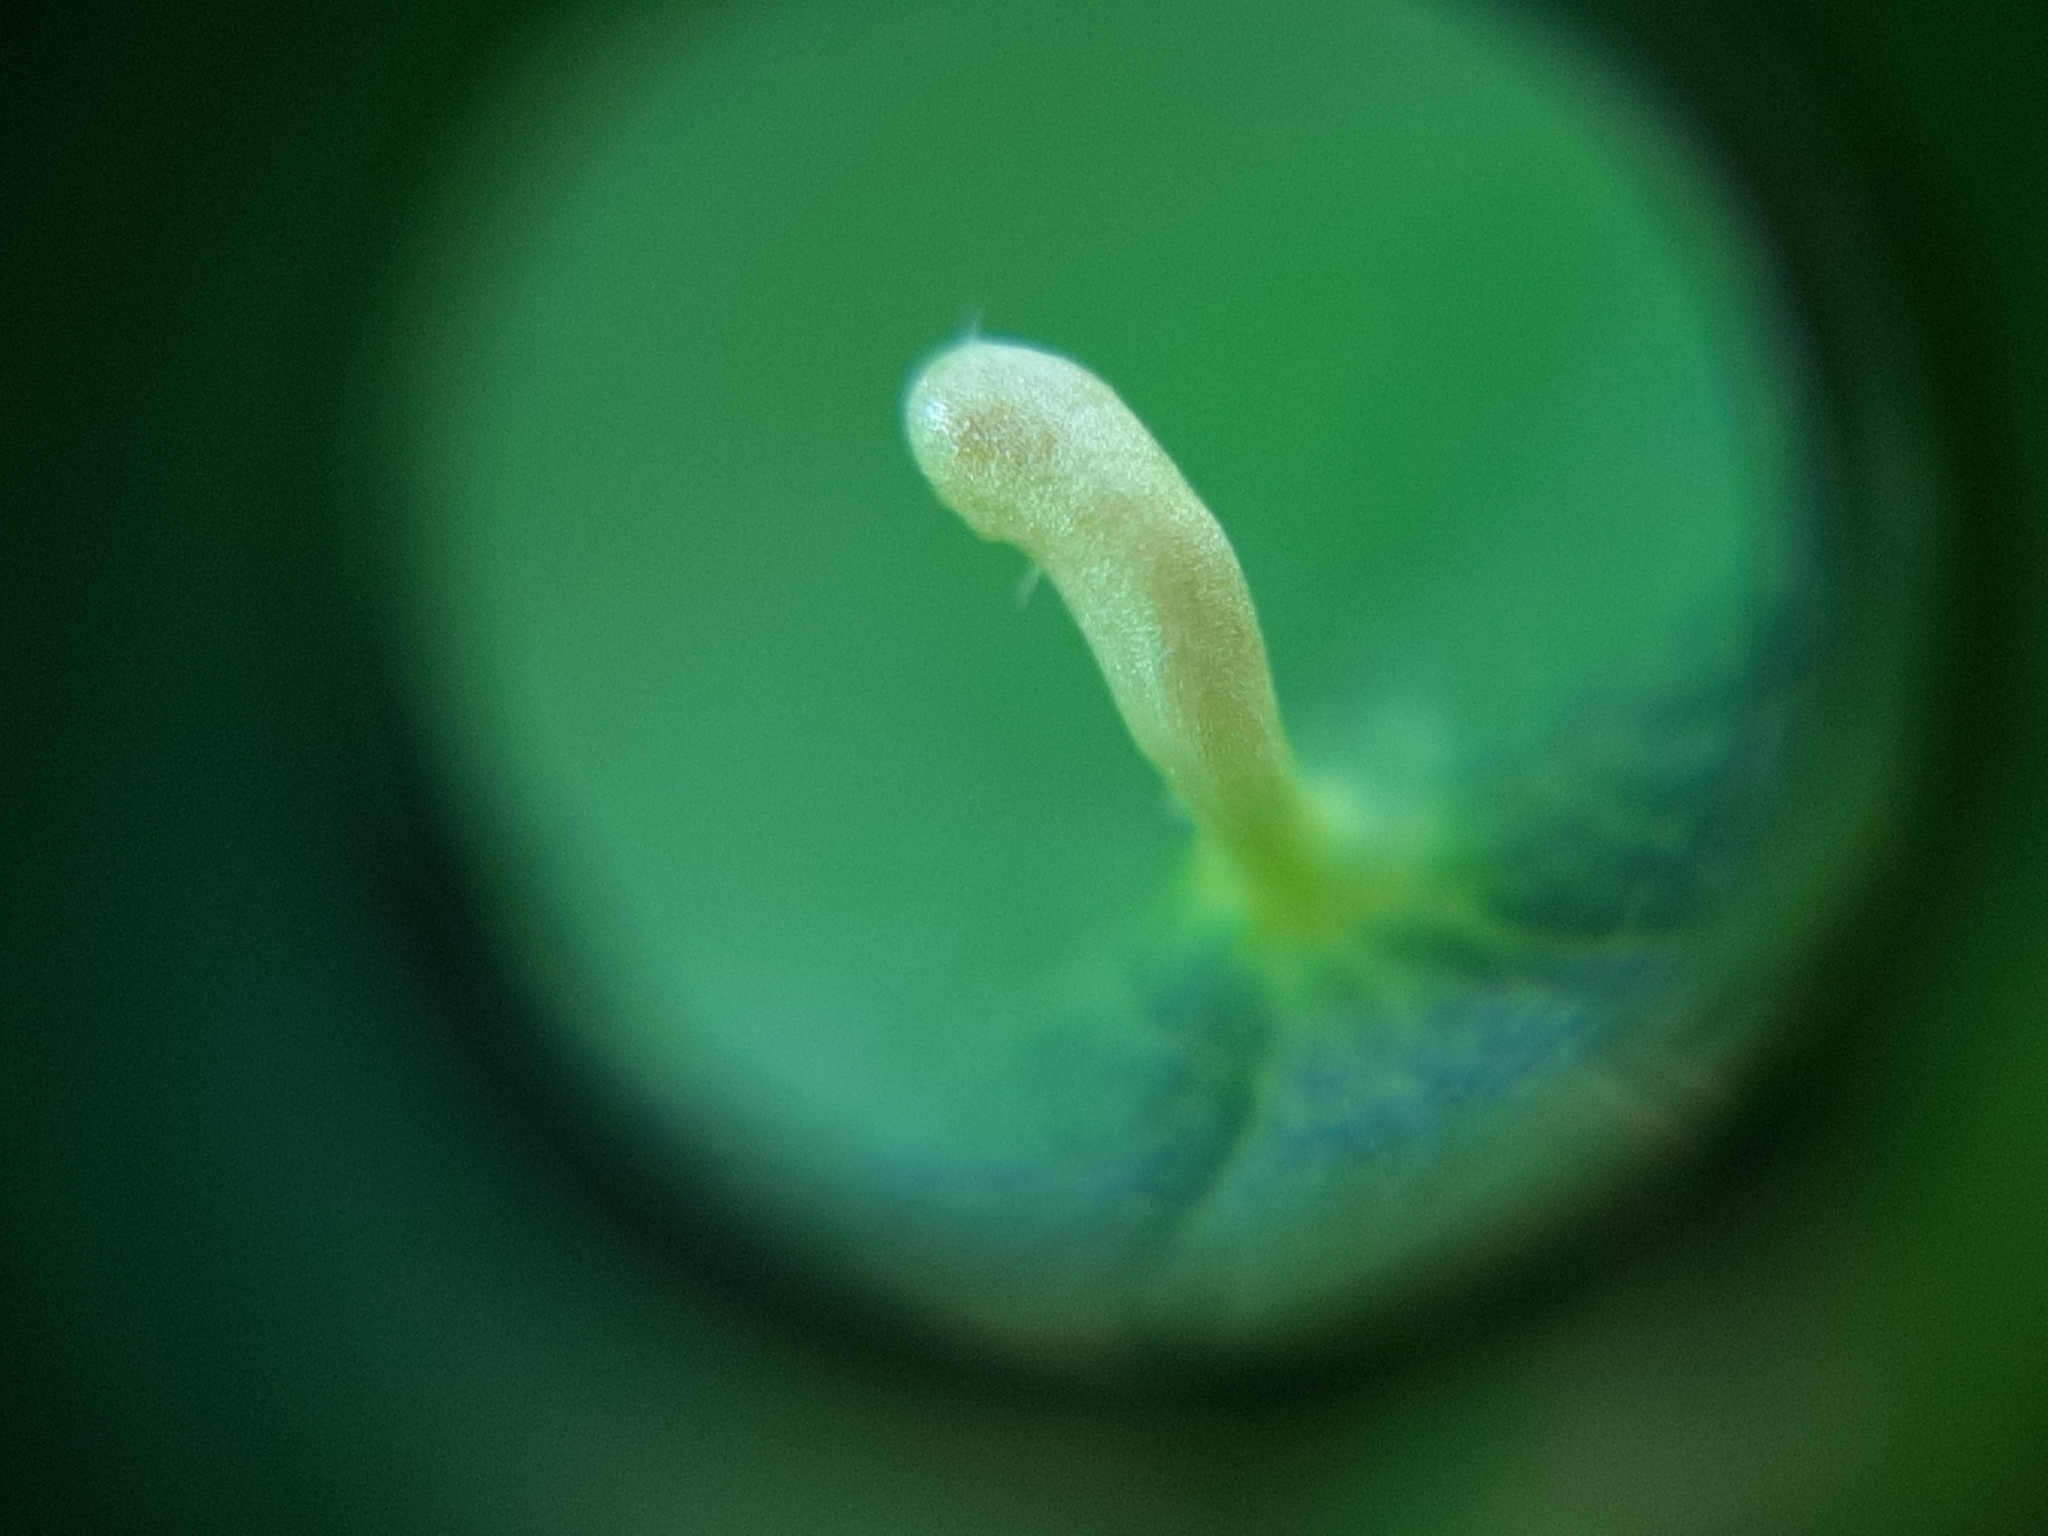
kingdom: Animalia
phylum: Arthropoda
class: Arachnida
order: Trombidiformes
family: Eriophyidae
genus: Phyllocoptes
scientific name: Phyllocoptes eupadi
